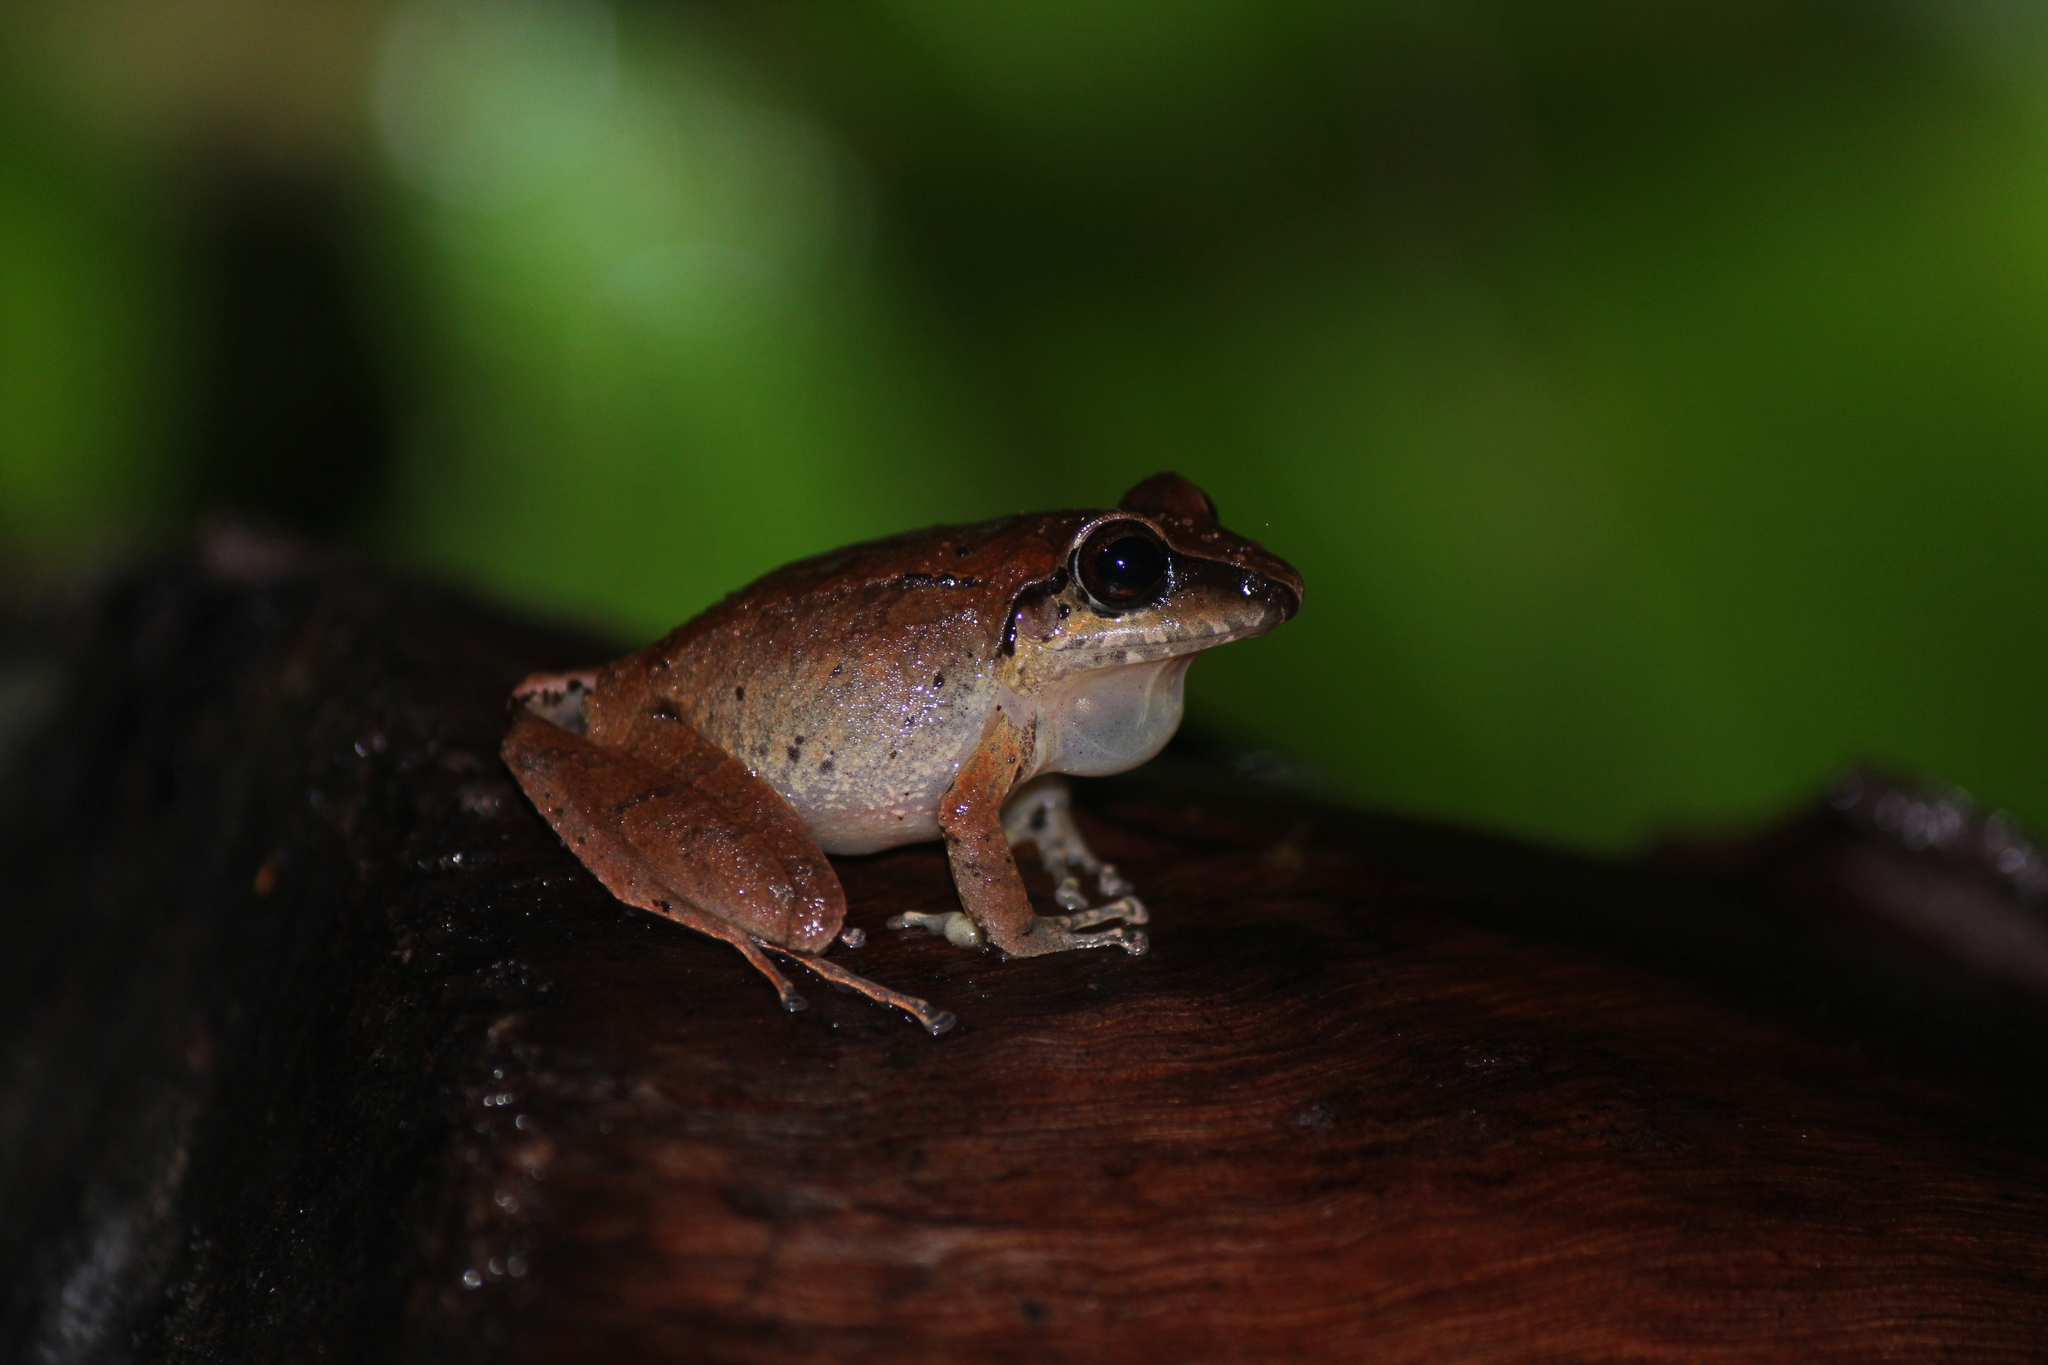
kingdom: Animalia
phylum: Chordata
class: Amphibia
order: Anura
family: Craugastoridae
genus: Pristimantis
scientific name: Pristimantis achatinus
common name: Cachabi robber frog
